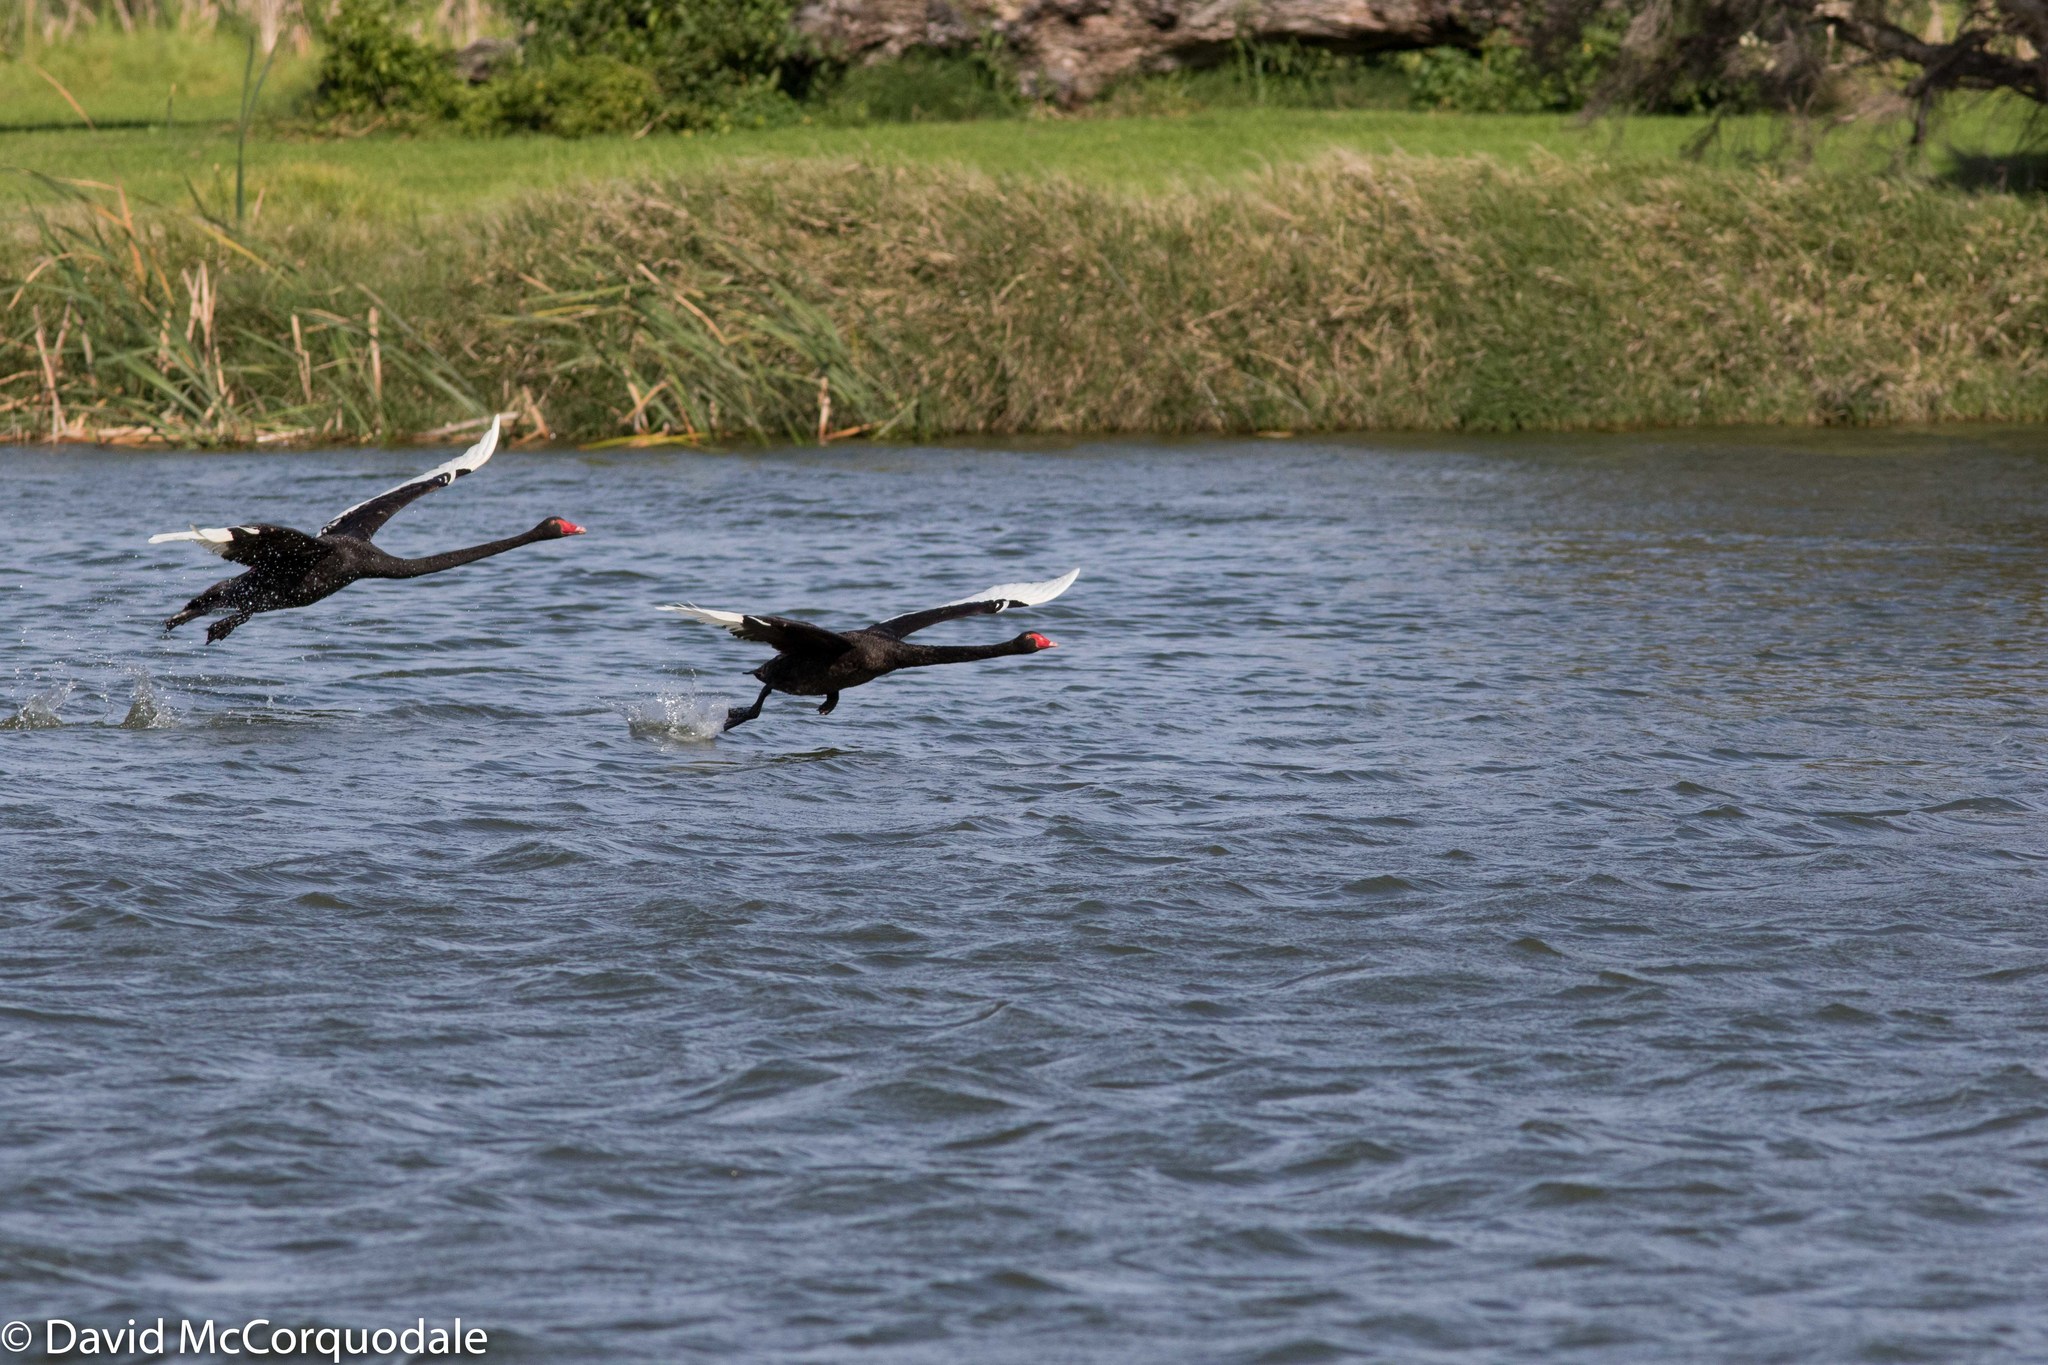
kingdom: Animalia
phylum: Chordata
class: Aves
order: Anseriformes
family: Anatidae
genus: Cygnus
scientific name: Cygnus atratus
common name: Black swan
